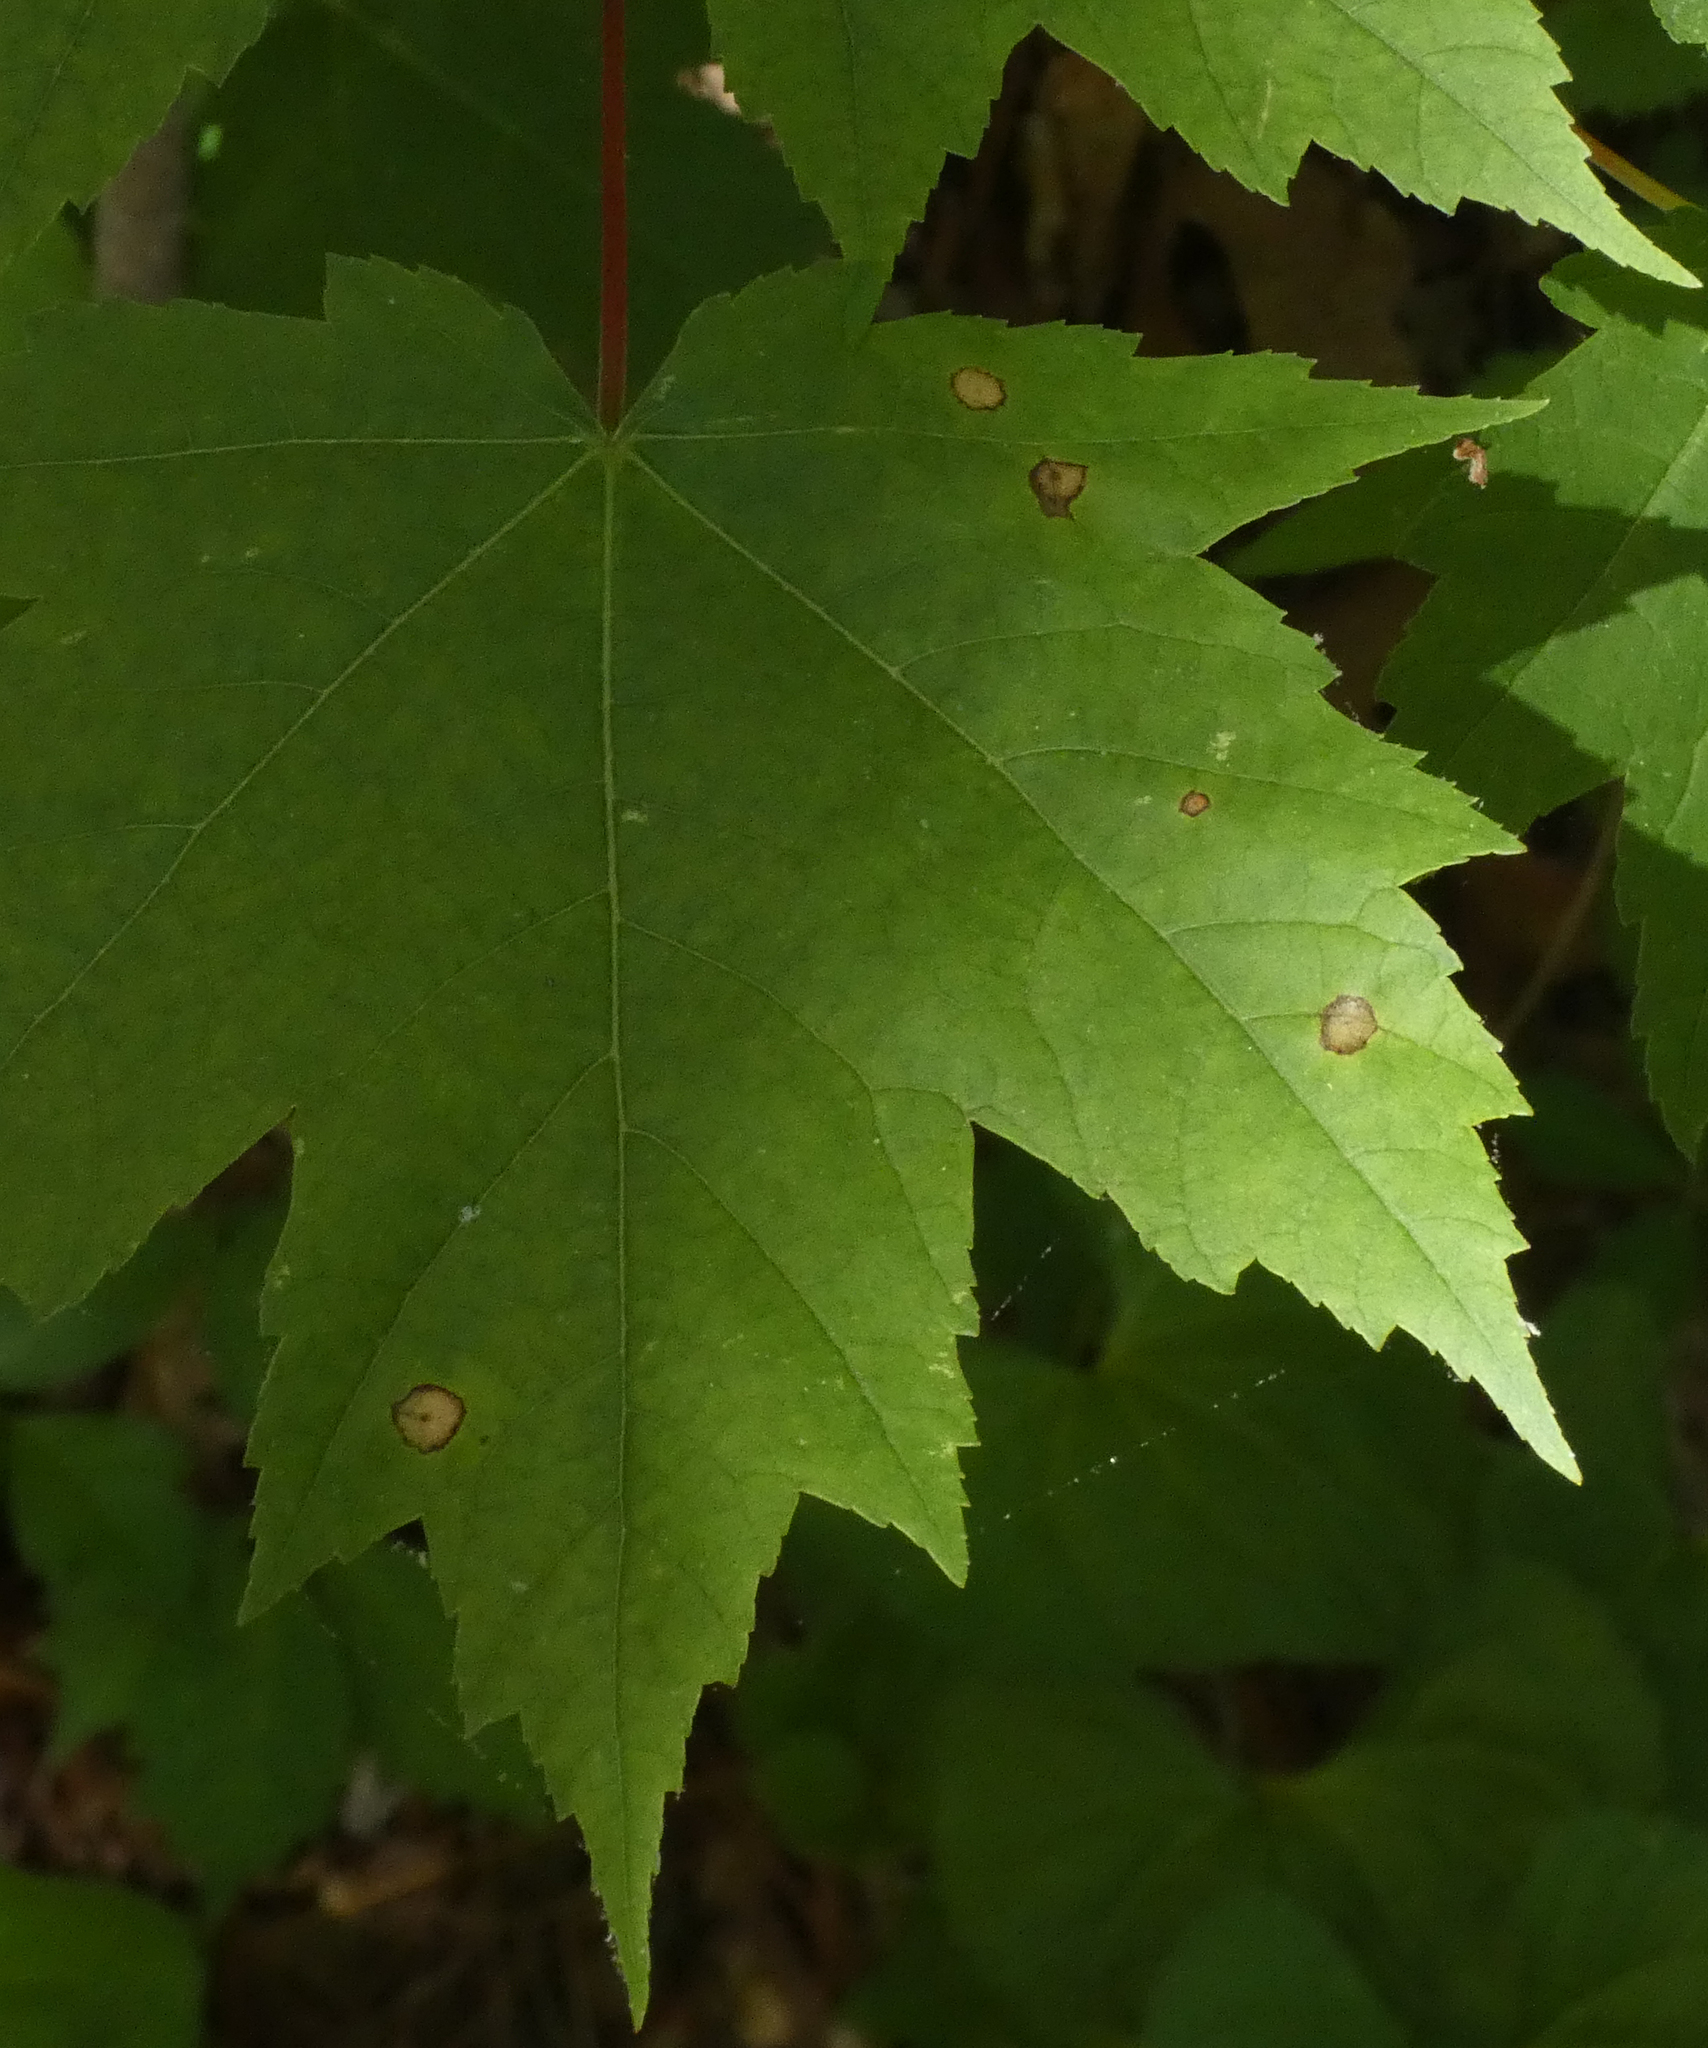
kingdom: Animalia
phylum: Arthropoda
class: Insecta
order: Diptera
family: Cecidomyiidae
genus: Acericecis
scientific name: Acericecis ocellaris
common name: Ocellate gall midge
